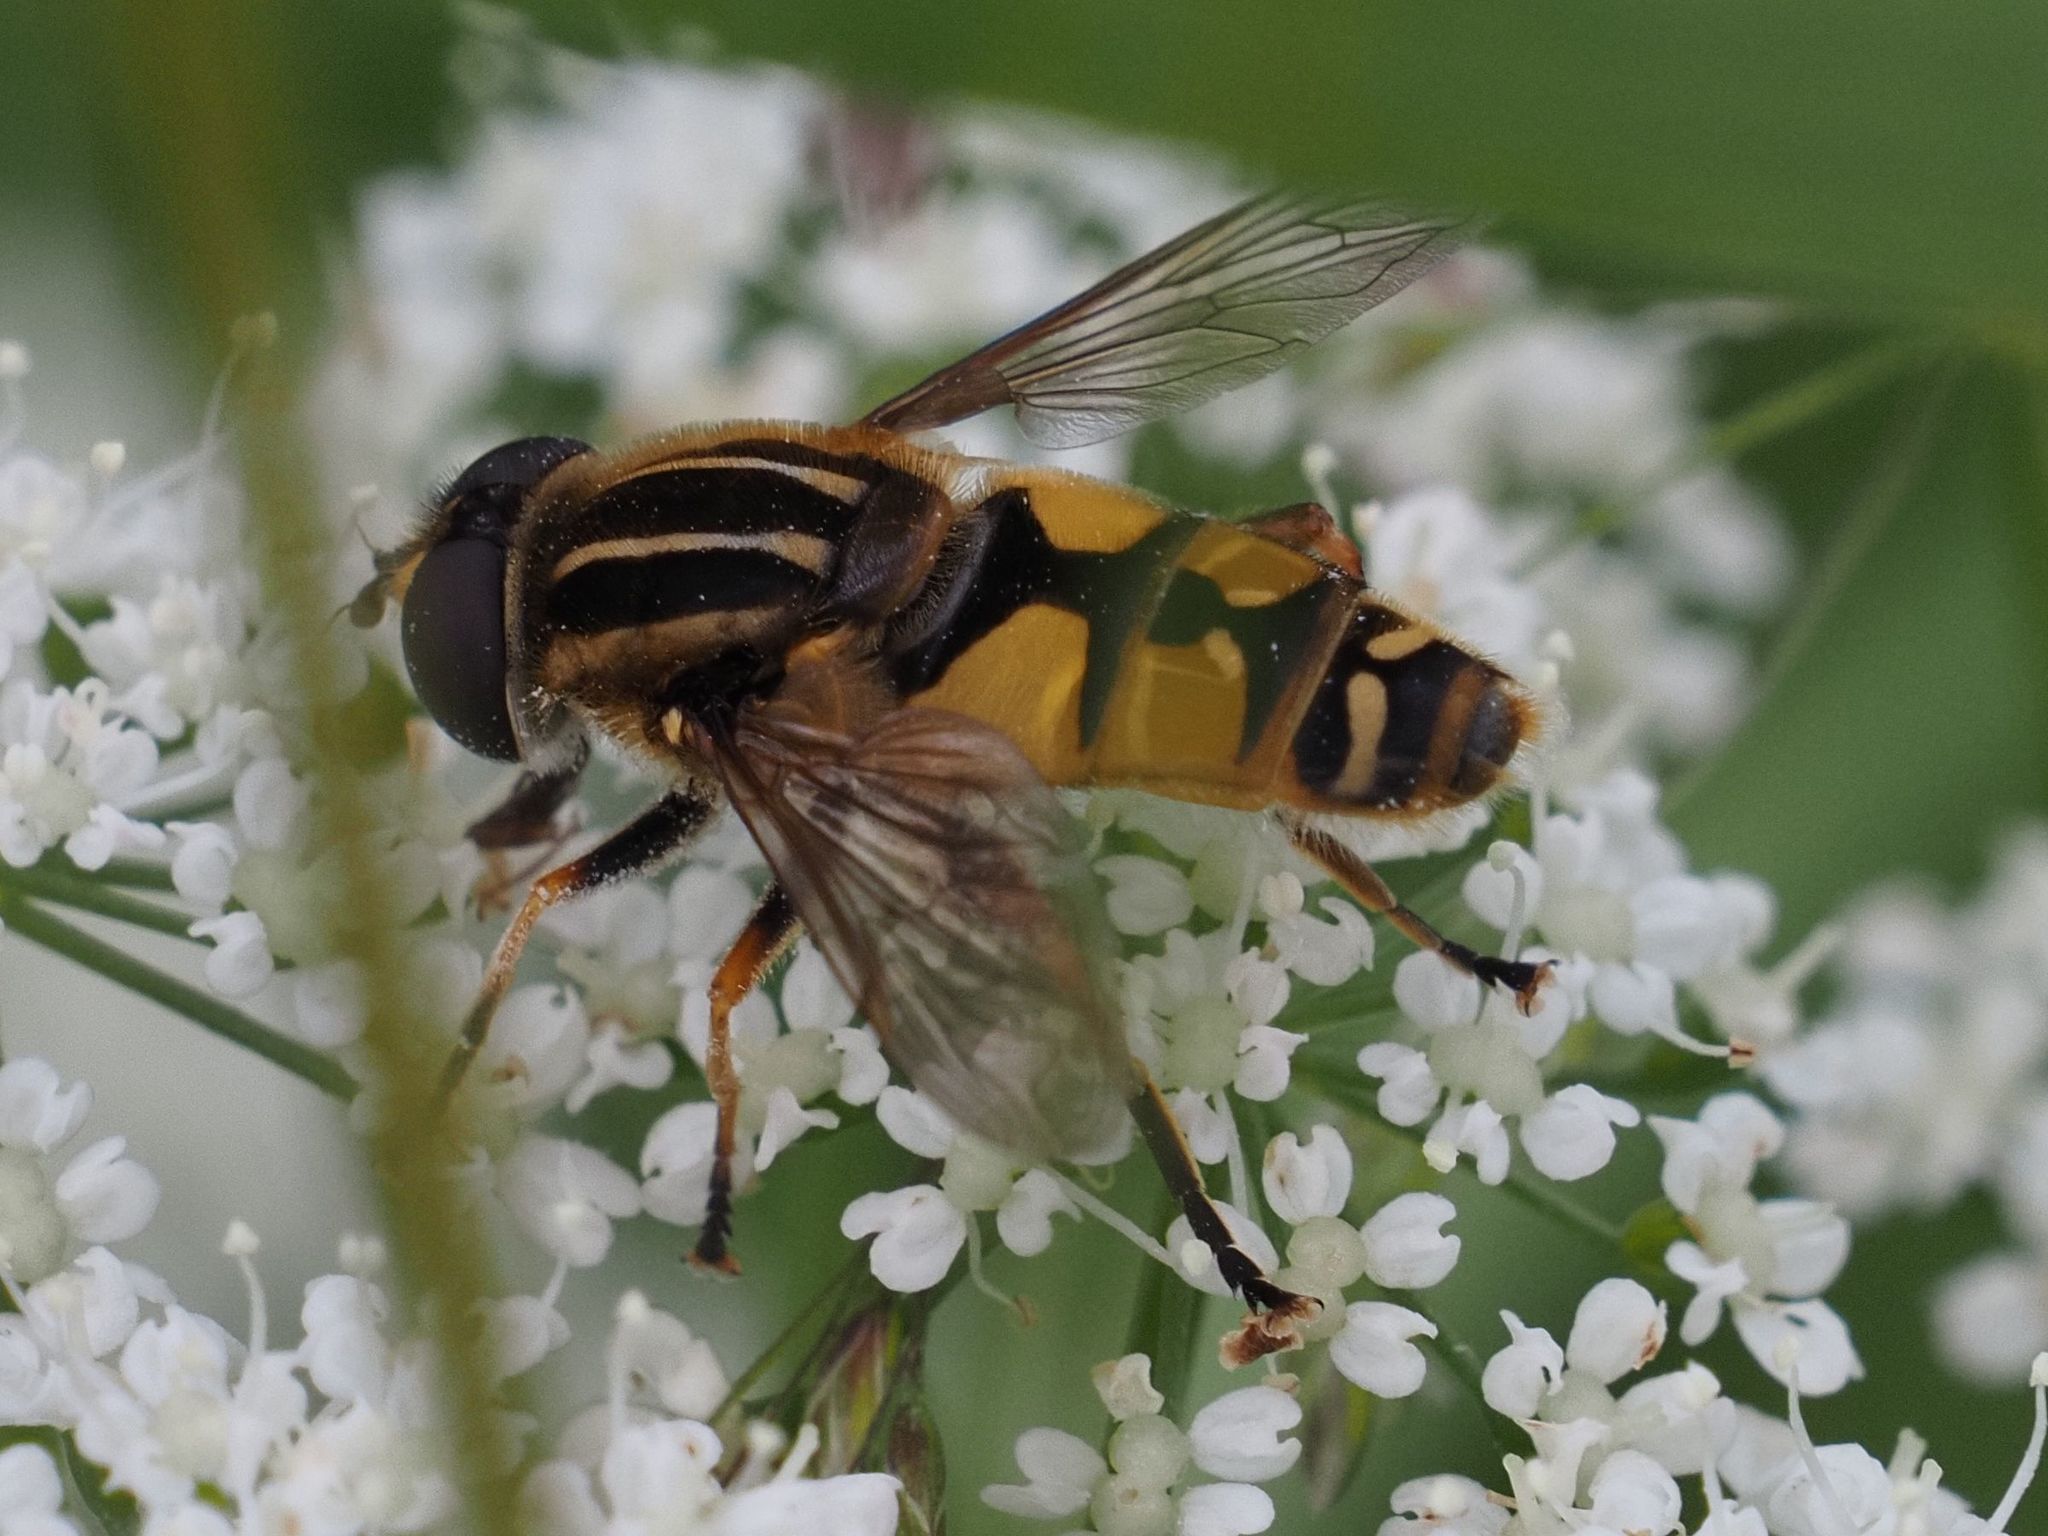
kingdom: Animalia
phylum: Arthropoda
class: Insecta
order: Diptera
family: Syrphidae
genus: Helophilus
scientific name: Helophilus pendulus
